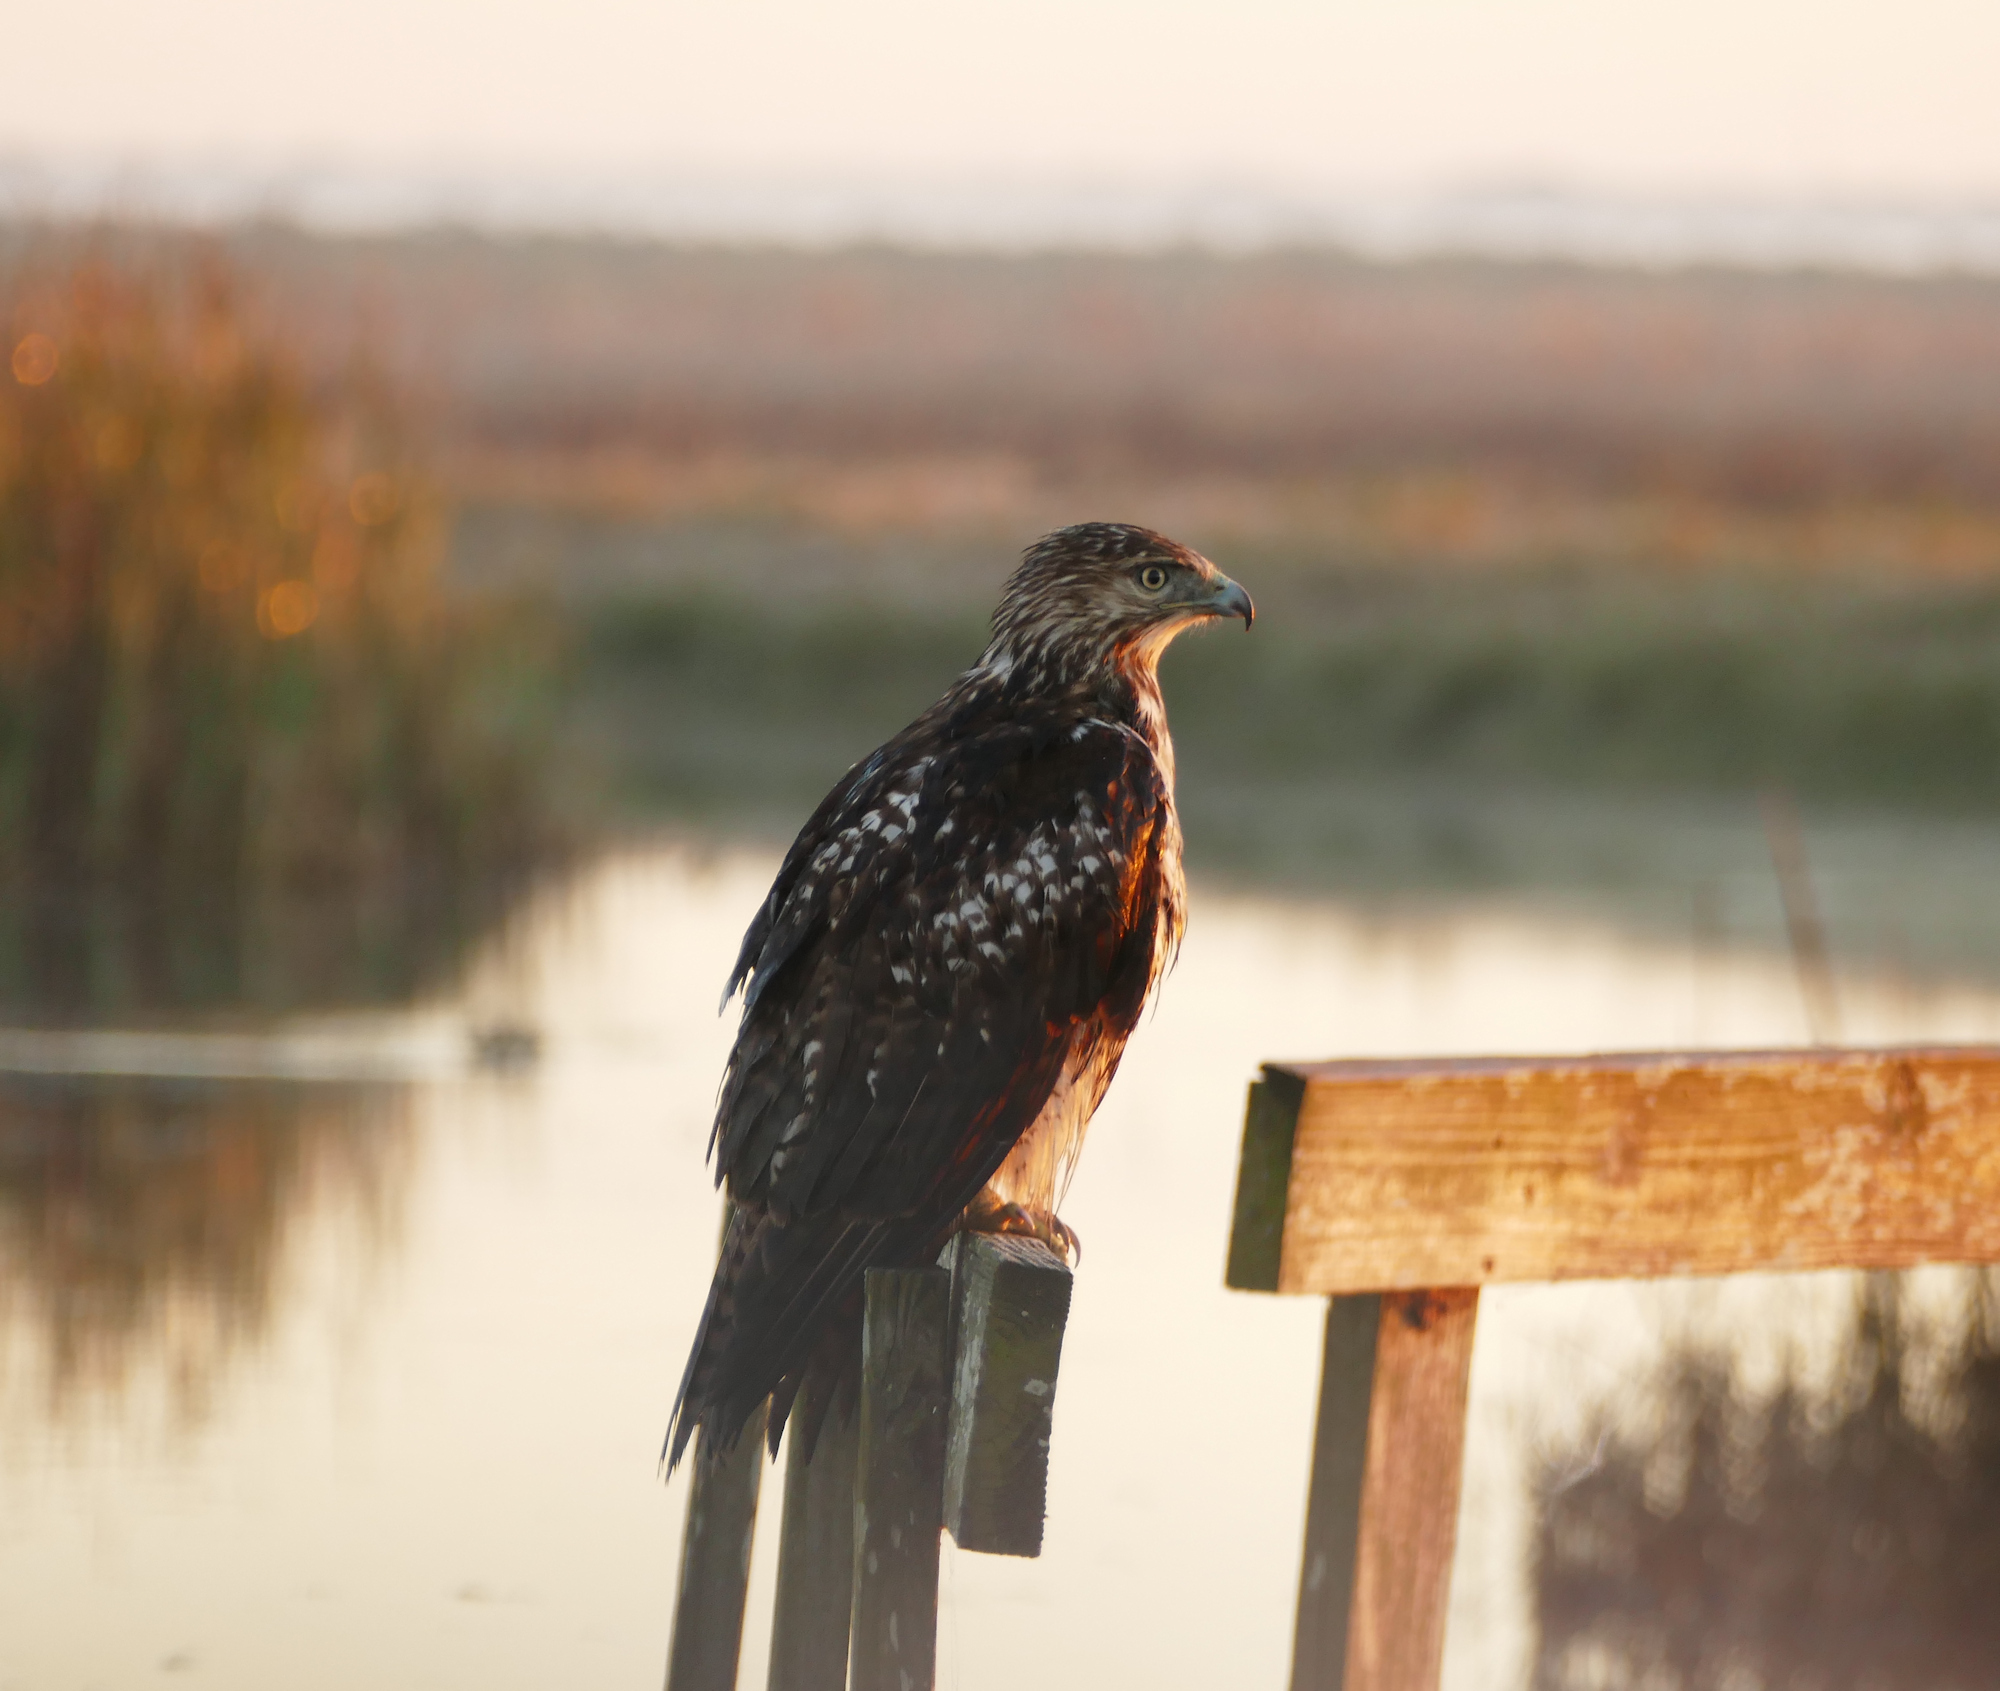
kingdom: Animalia
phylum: Chordata
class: Aves
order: Accipitriformes
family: Accipitridae
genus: Buteo
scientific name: Buteo jamaicensis
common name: Red-tailed hawk
